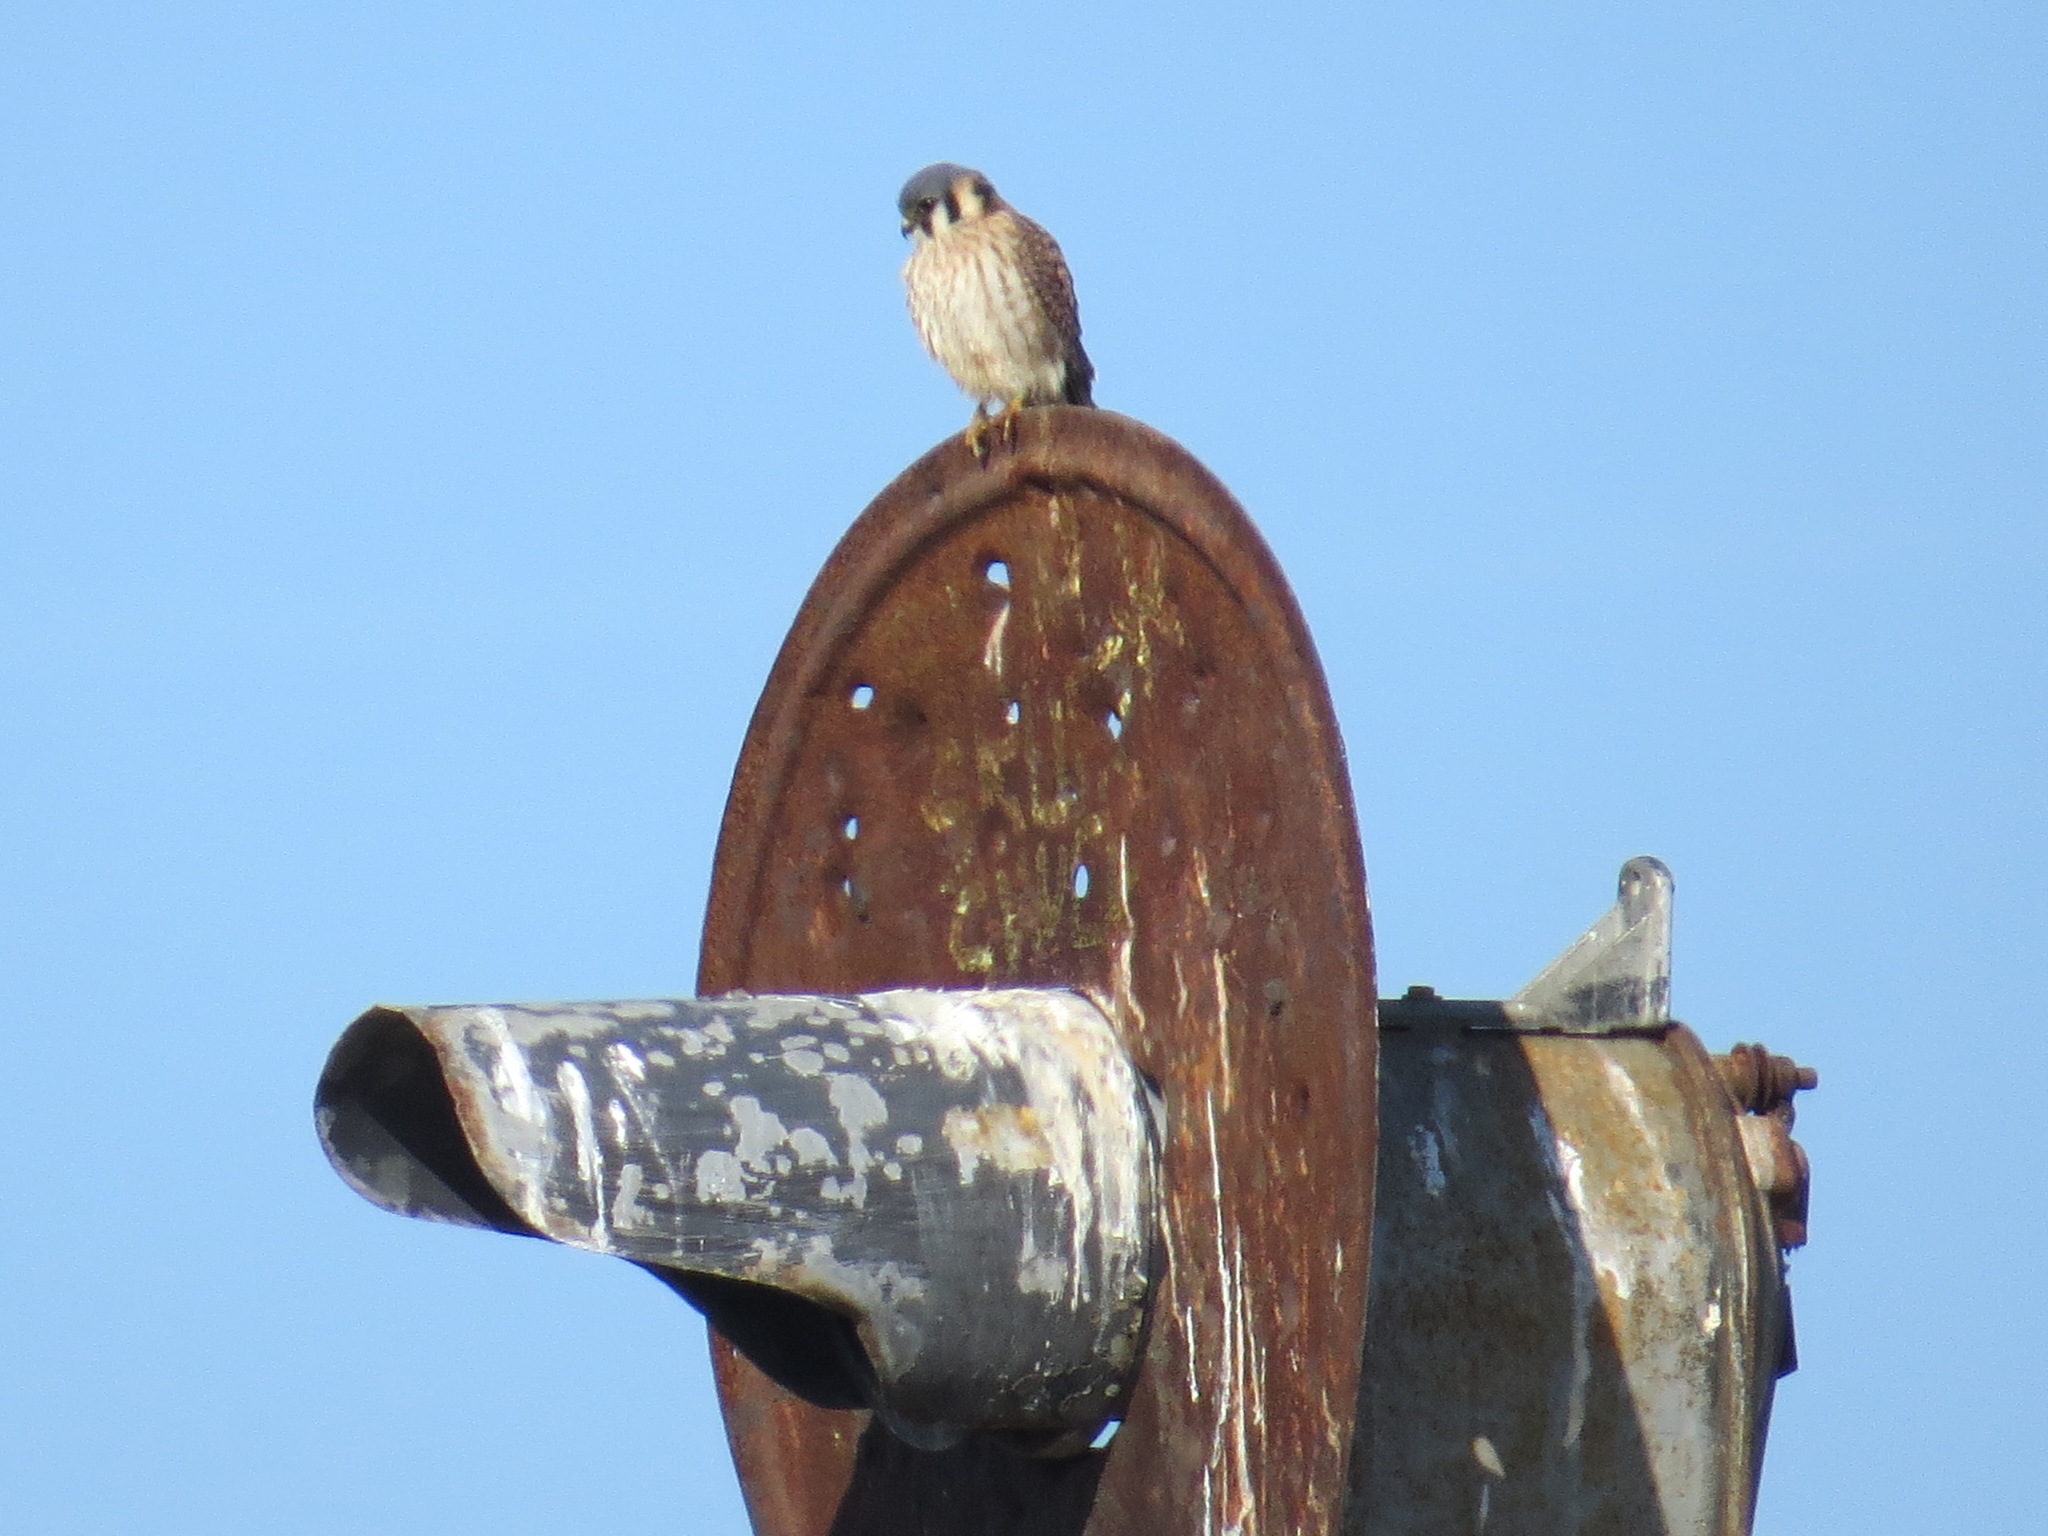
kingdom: Animalia
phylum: Chordata
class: Aves
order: Falconiformes
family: Falconidae
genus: Falco
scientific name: Falco sparverius
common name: American kestrel
